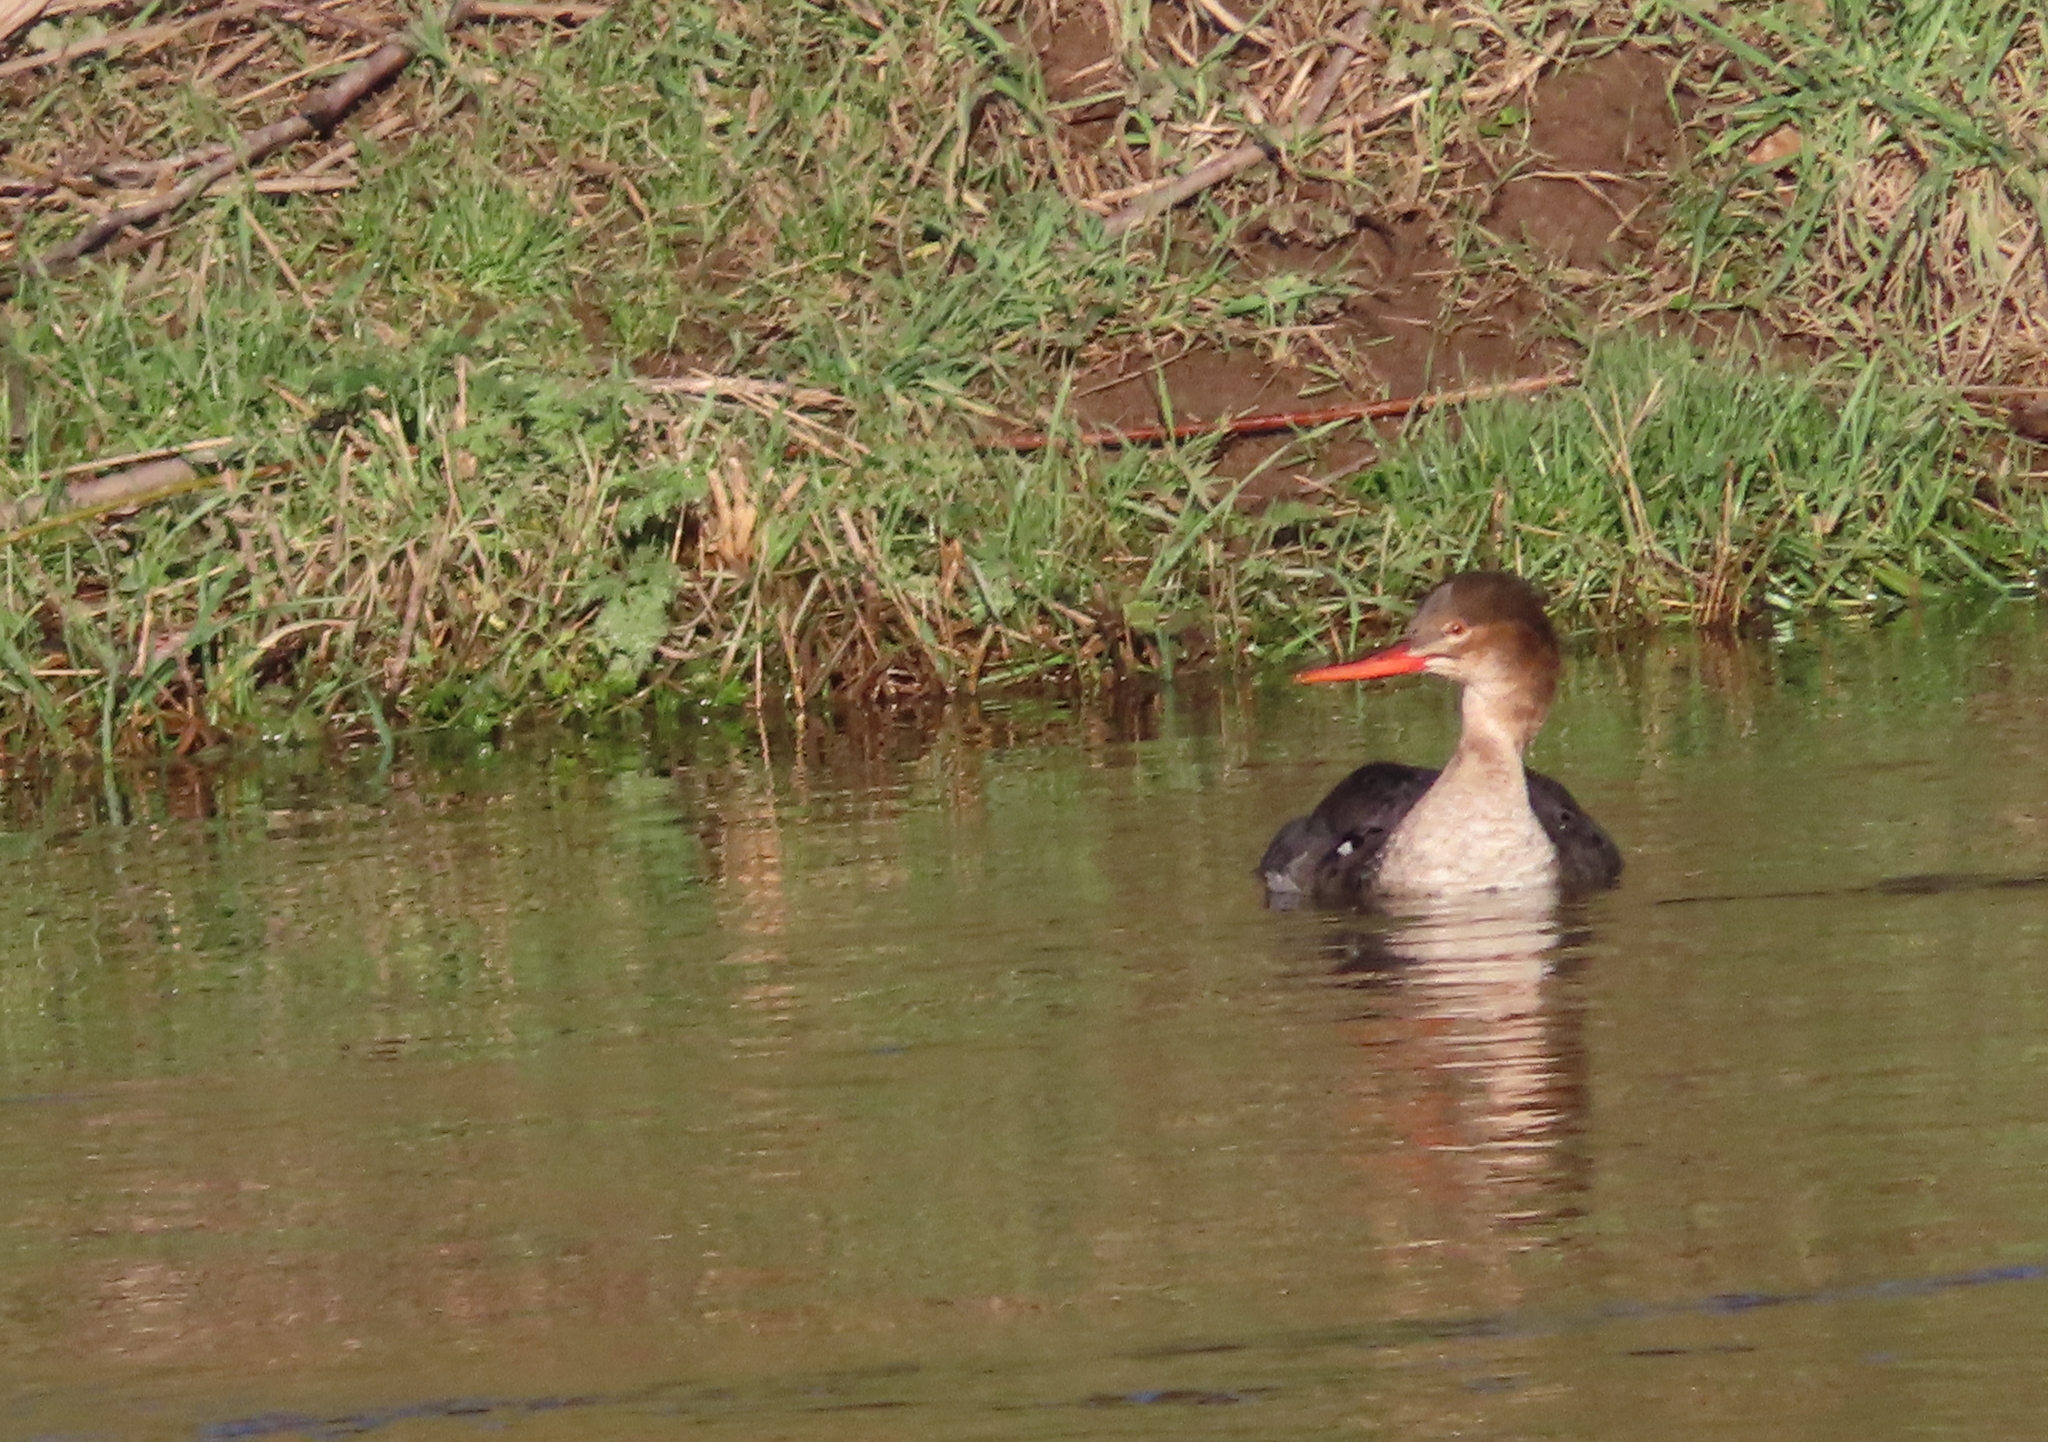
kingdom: Animalia
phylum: Chordata
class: Aves
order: Anseriformes
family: Anatidae
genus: Mergus
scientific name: Mergus serrator
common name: Red-breasted merganser
